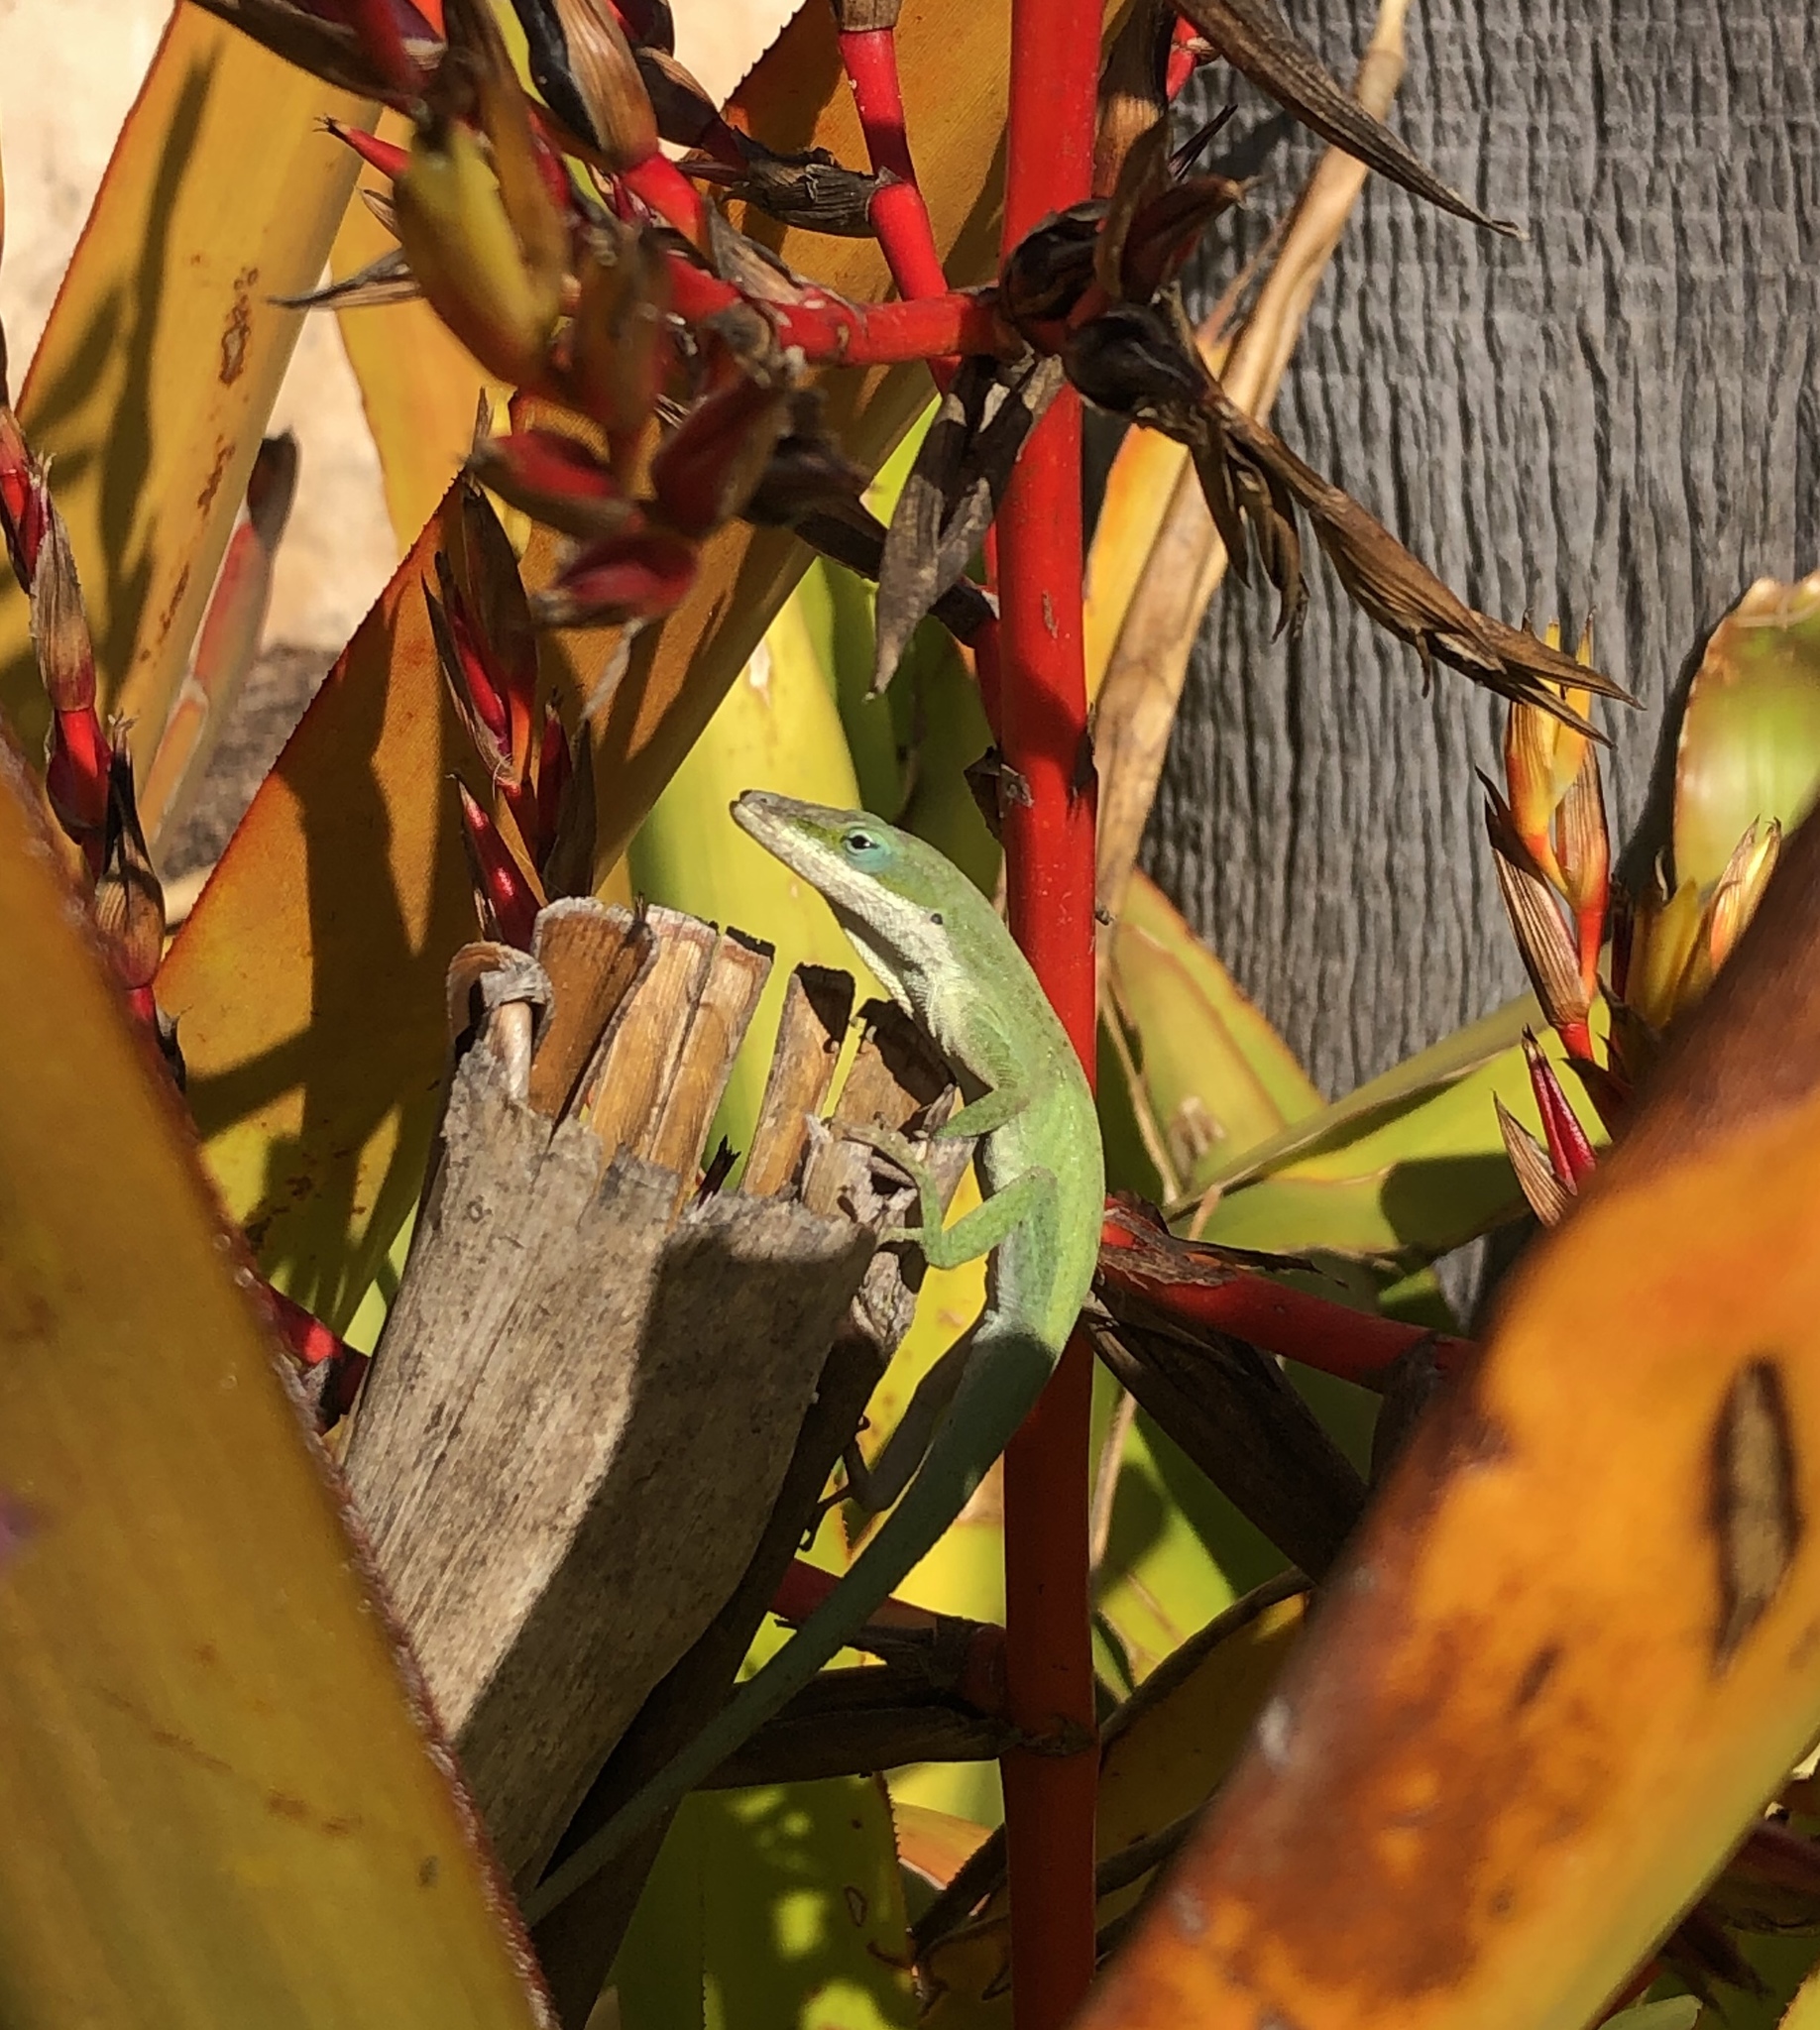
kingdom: Animalia
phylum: Chordata
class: Squamata
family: Dactyloidae
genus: Anolis
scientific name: Anolis carolinensis
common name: Green anole
